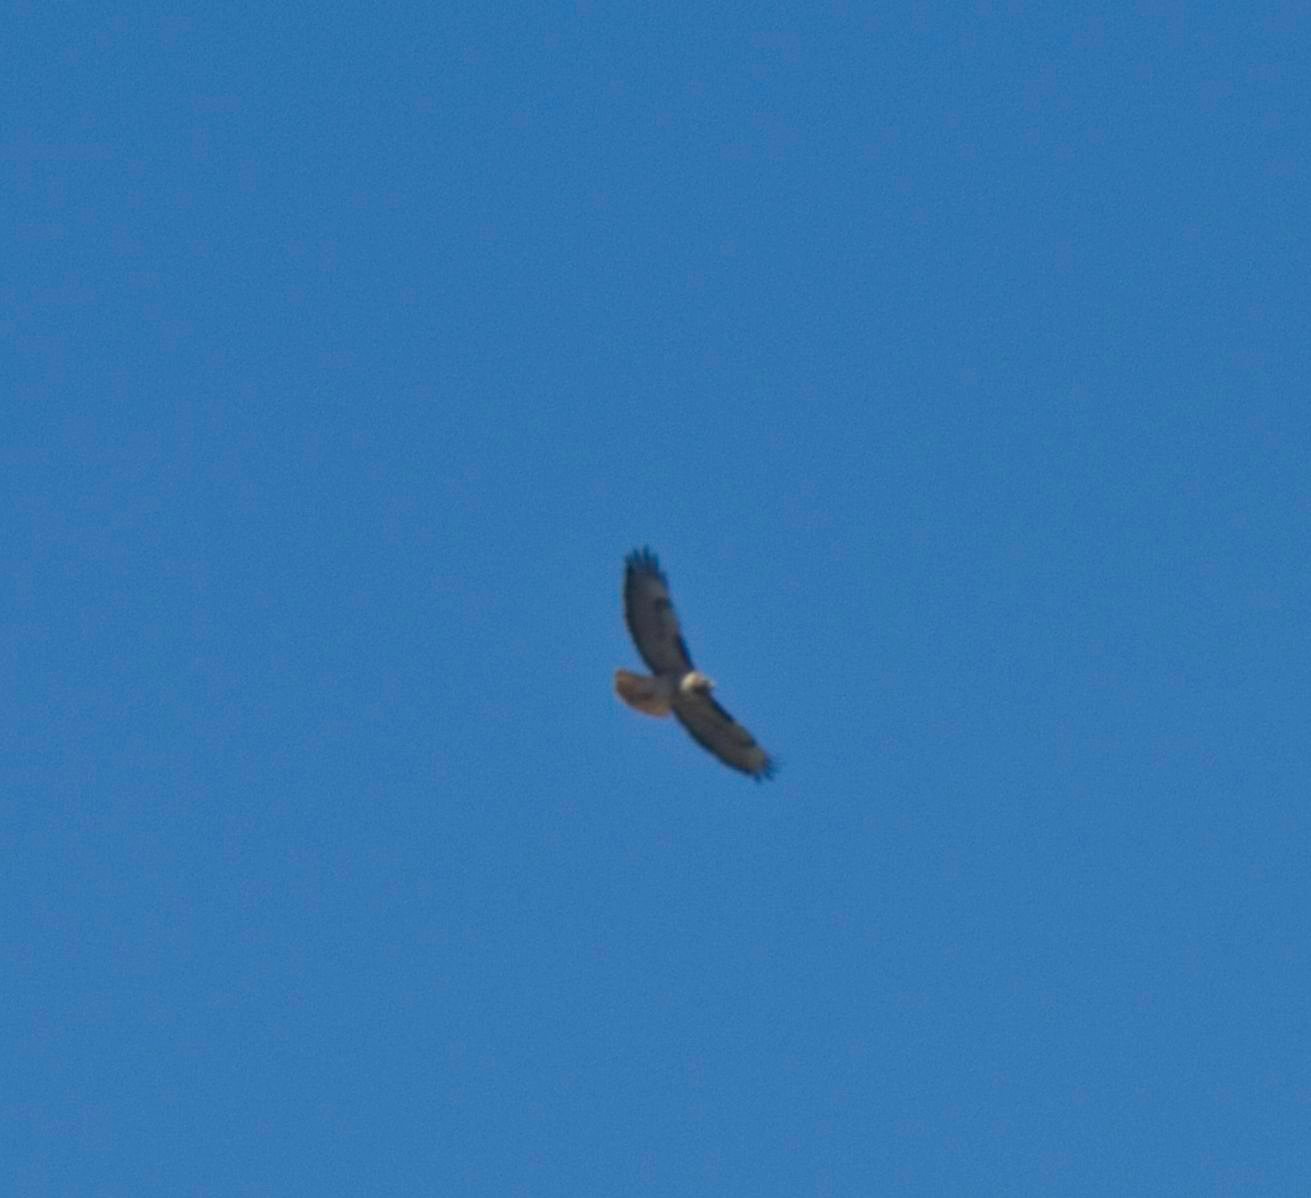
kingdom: Animalia
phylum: Chordata
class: Aves
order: Accipitriformes
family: Accipitridae
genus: Buteo
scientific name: Buteo jamaicensis
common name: Red-tailed hawk
